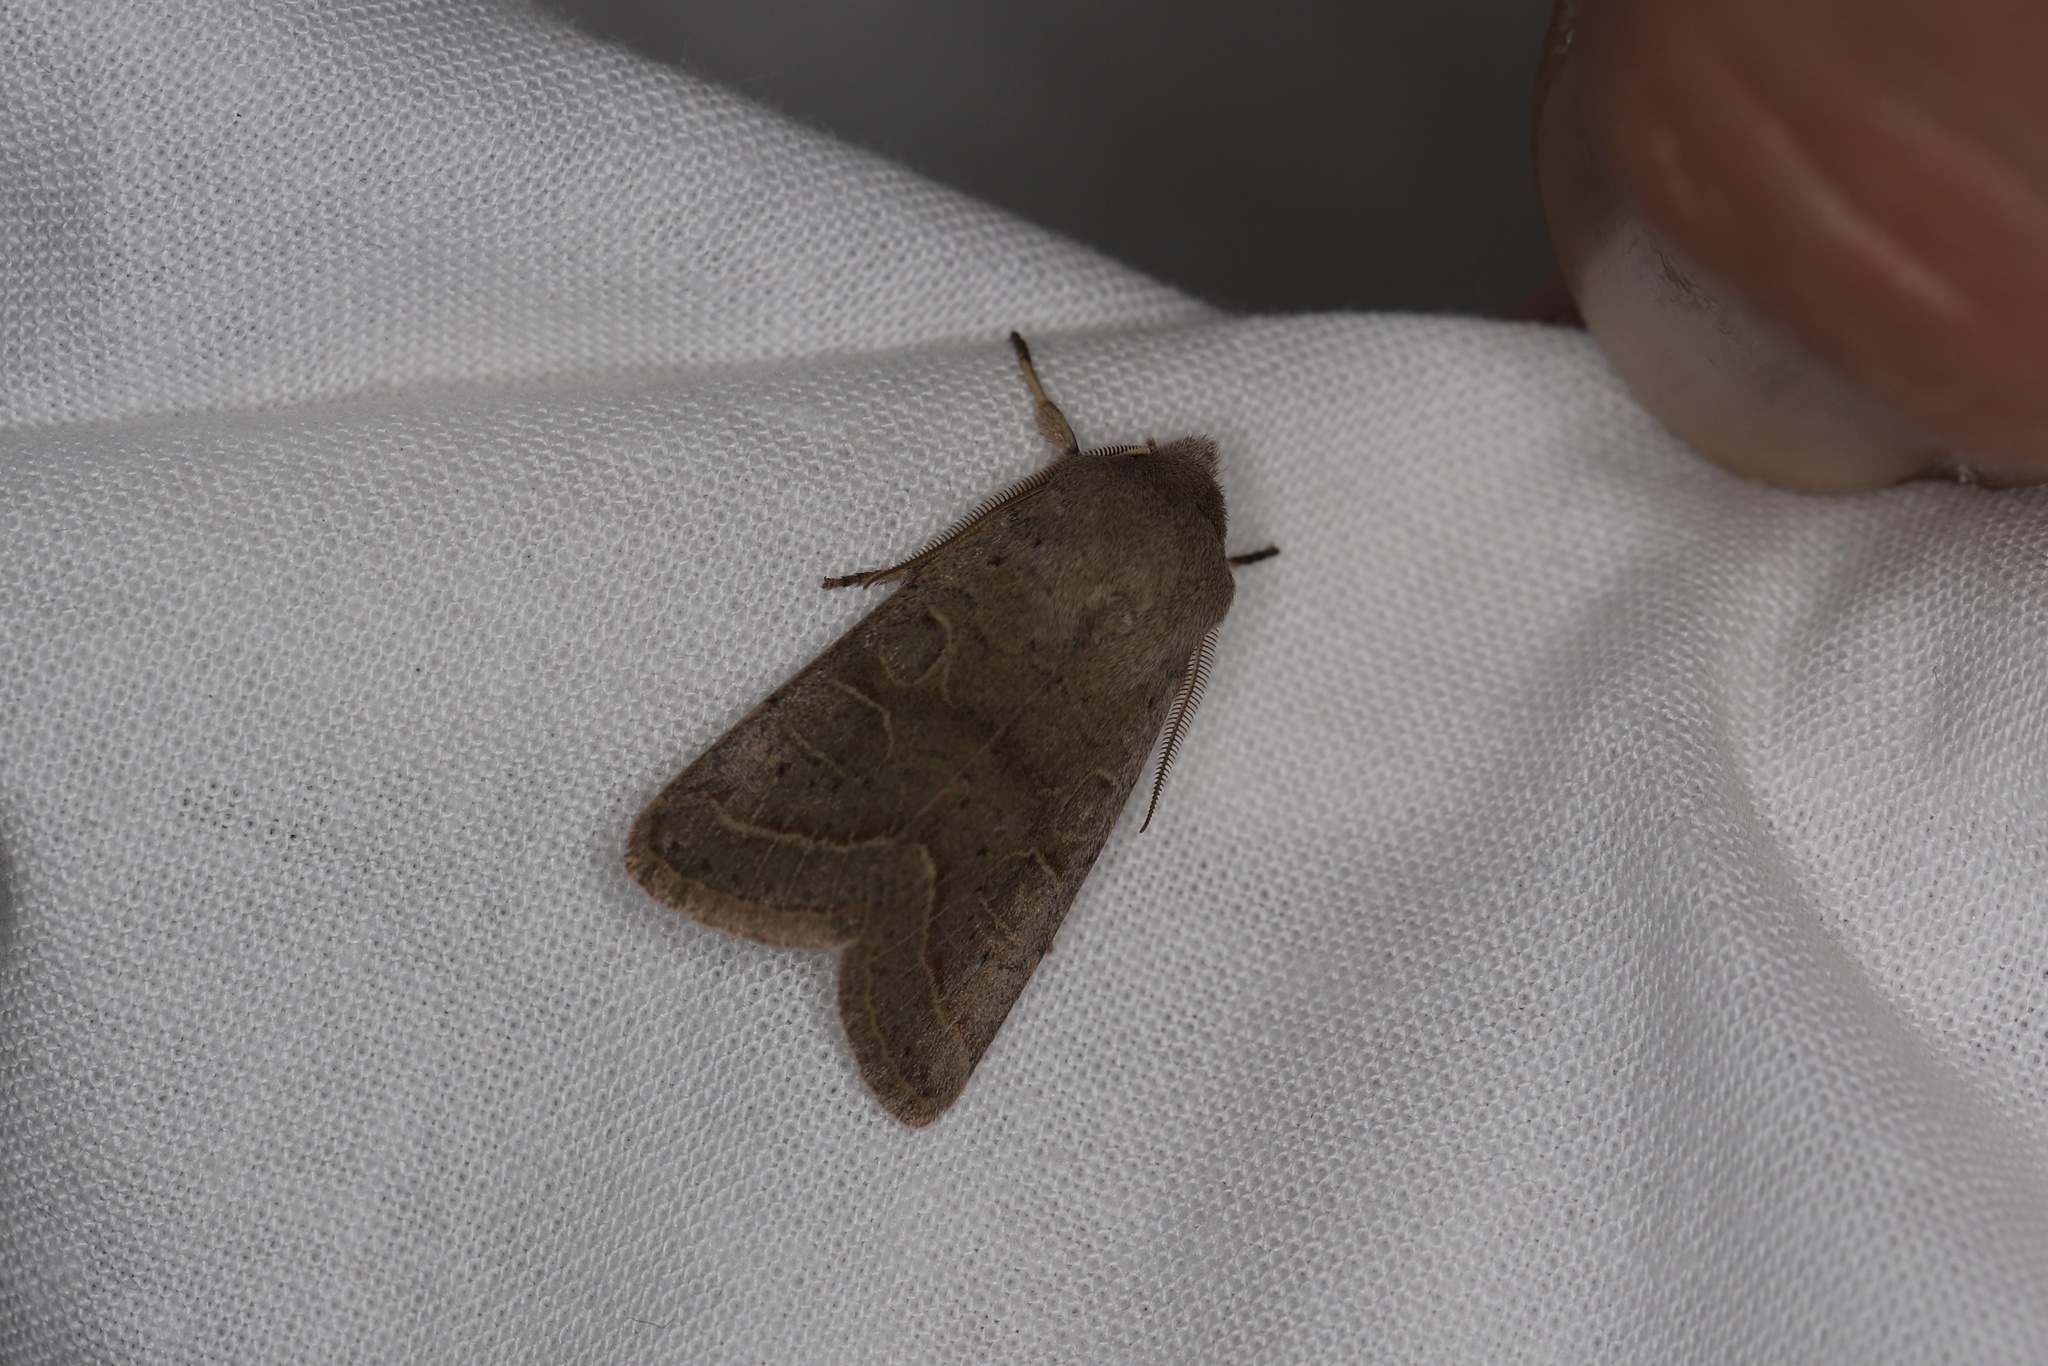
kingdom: Animalia
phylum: Arthropoda
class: Insecta
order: Lepidoptera
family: Noctuidae
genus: Orthosia
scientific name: Orthosia cerasi
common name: Common quaker
